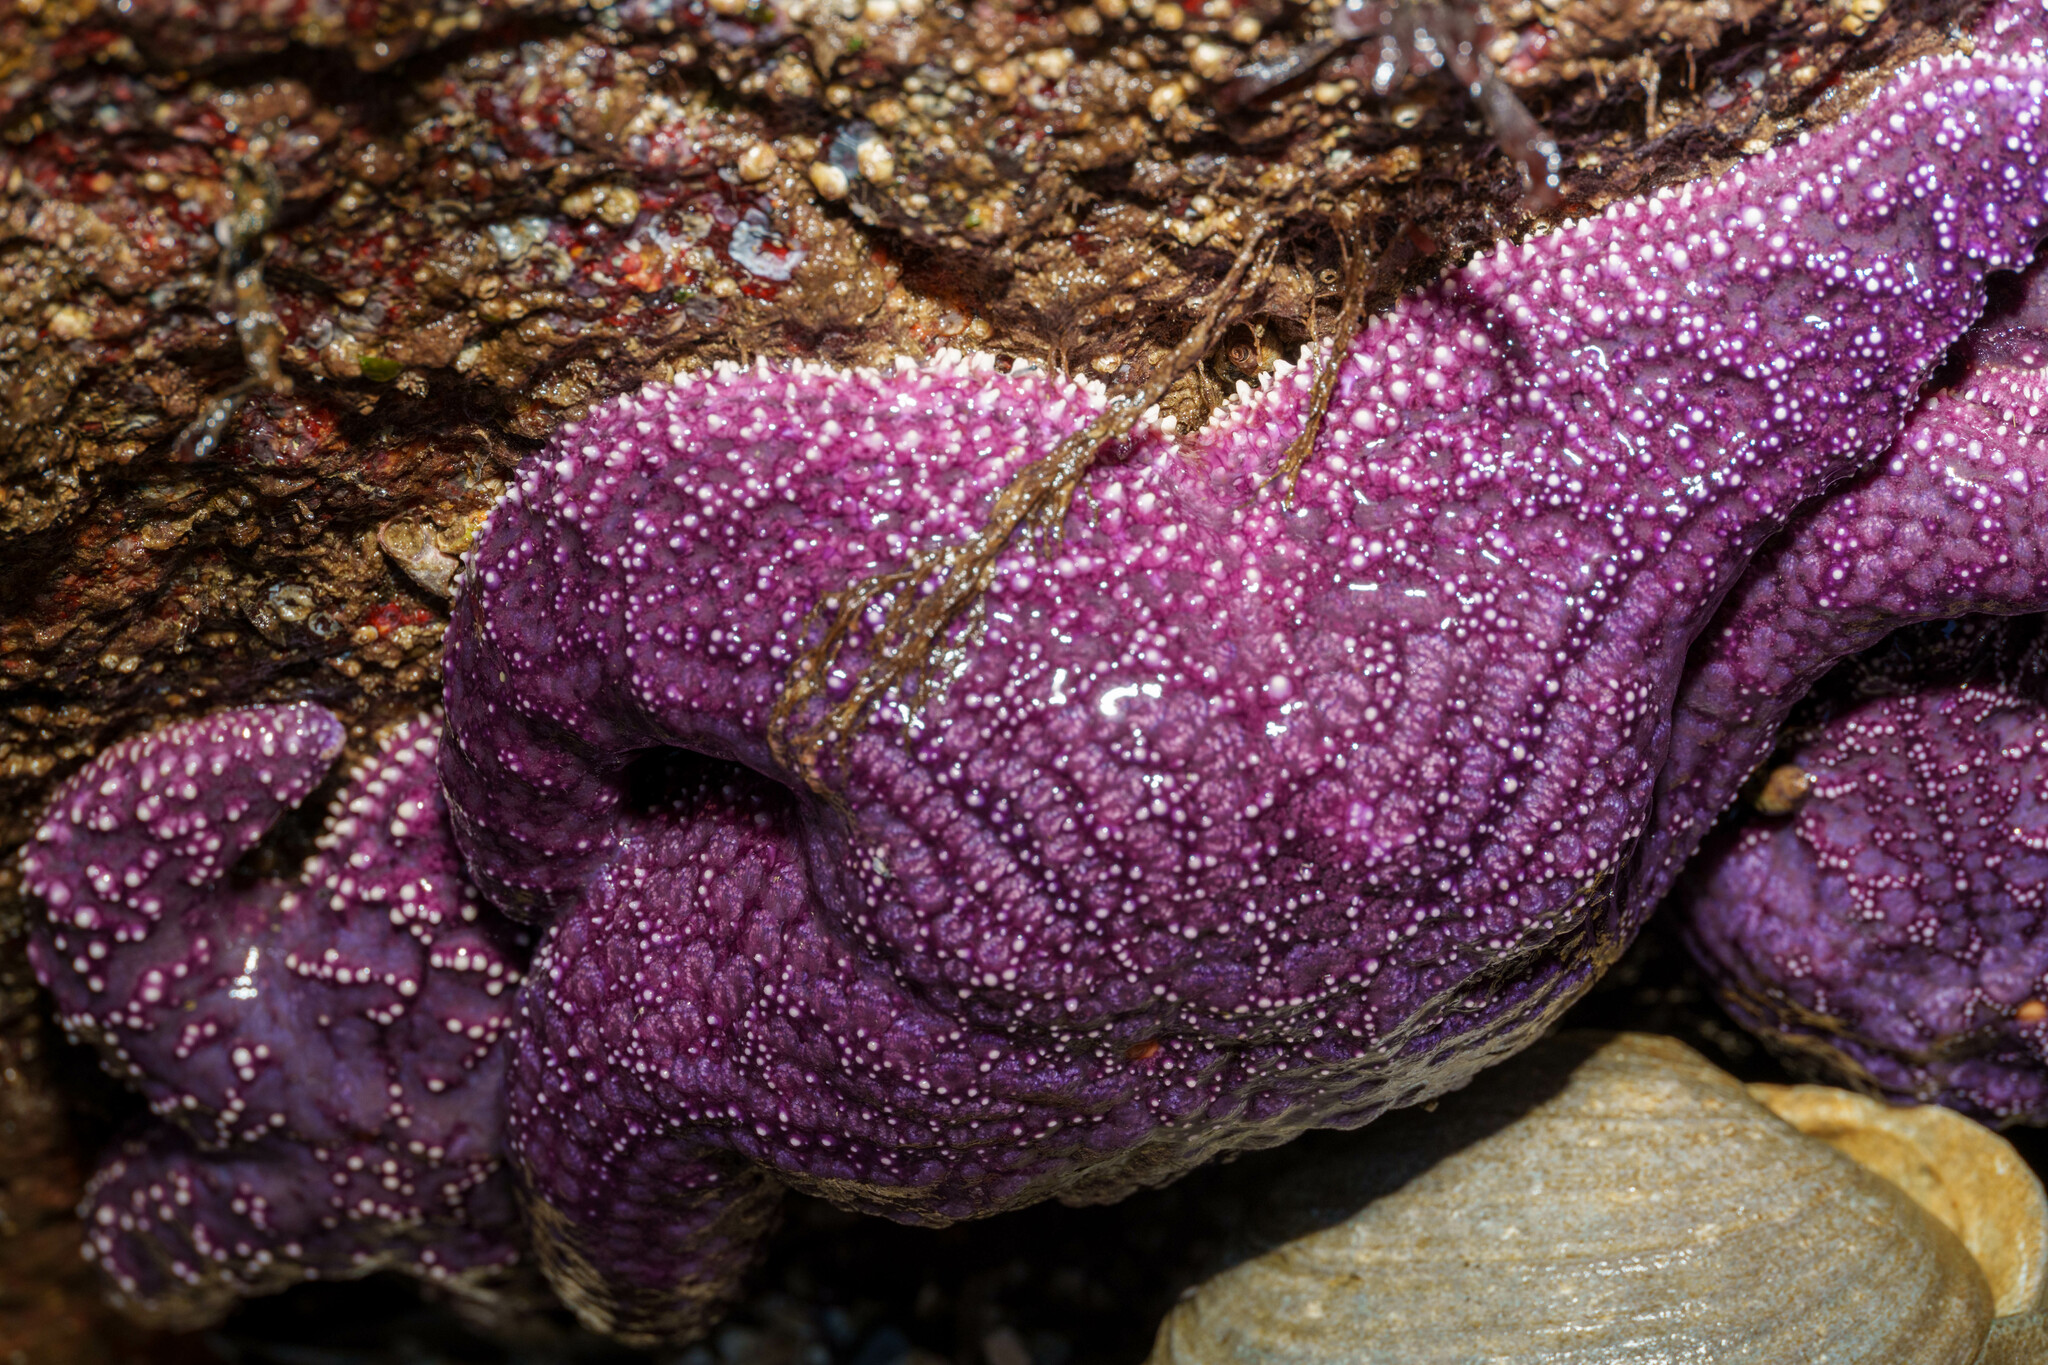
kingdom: Animalia
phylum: Echinodermata
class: Asteroidea
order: Forcipulatida
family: Asteriidae
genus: Pisaster
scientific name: Pisaster ochraceus
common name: Ochre stars
